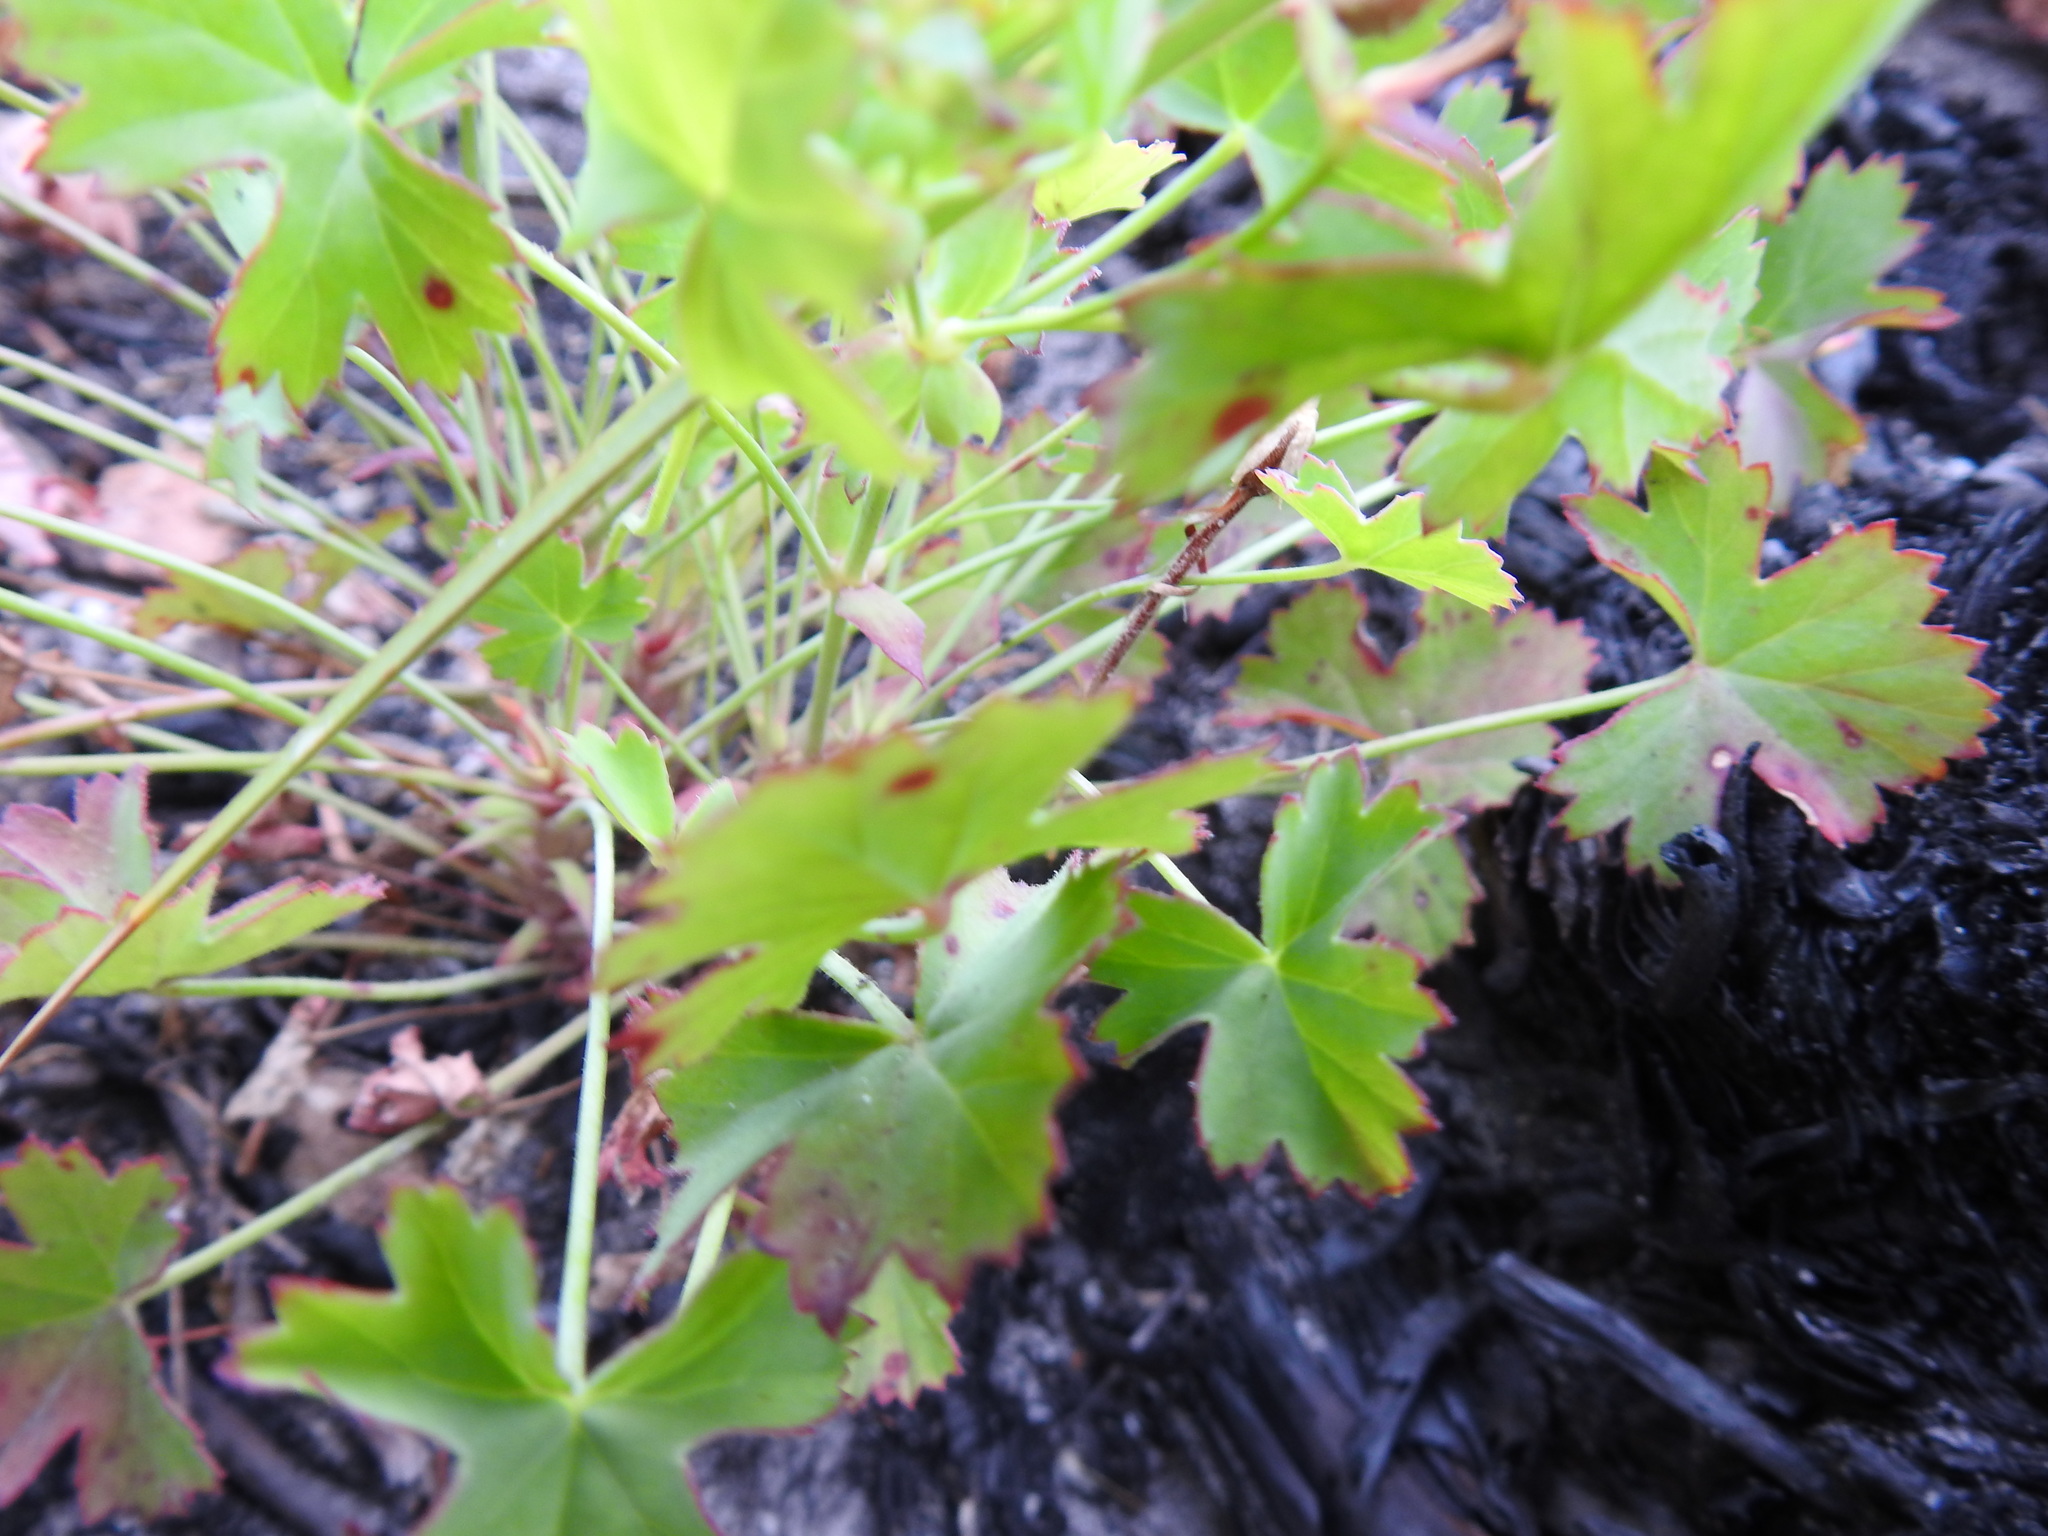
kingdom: Plantae
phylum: Tracheophyta
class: Magnoliopsida
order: Geraniales
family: Geraniaceae
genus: Pelargonium
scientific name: Pelargonium patulum
